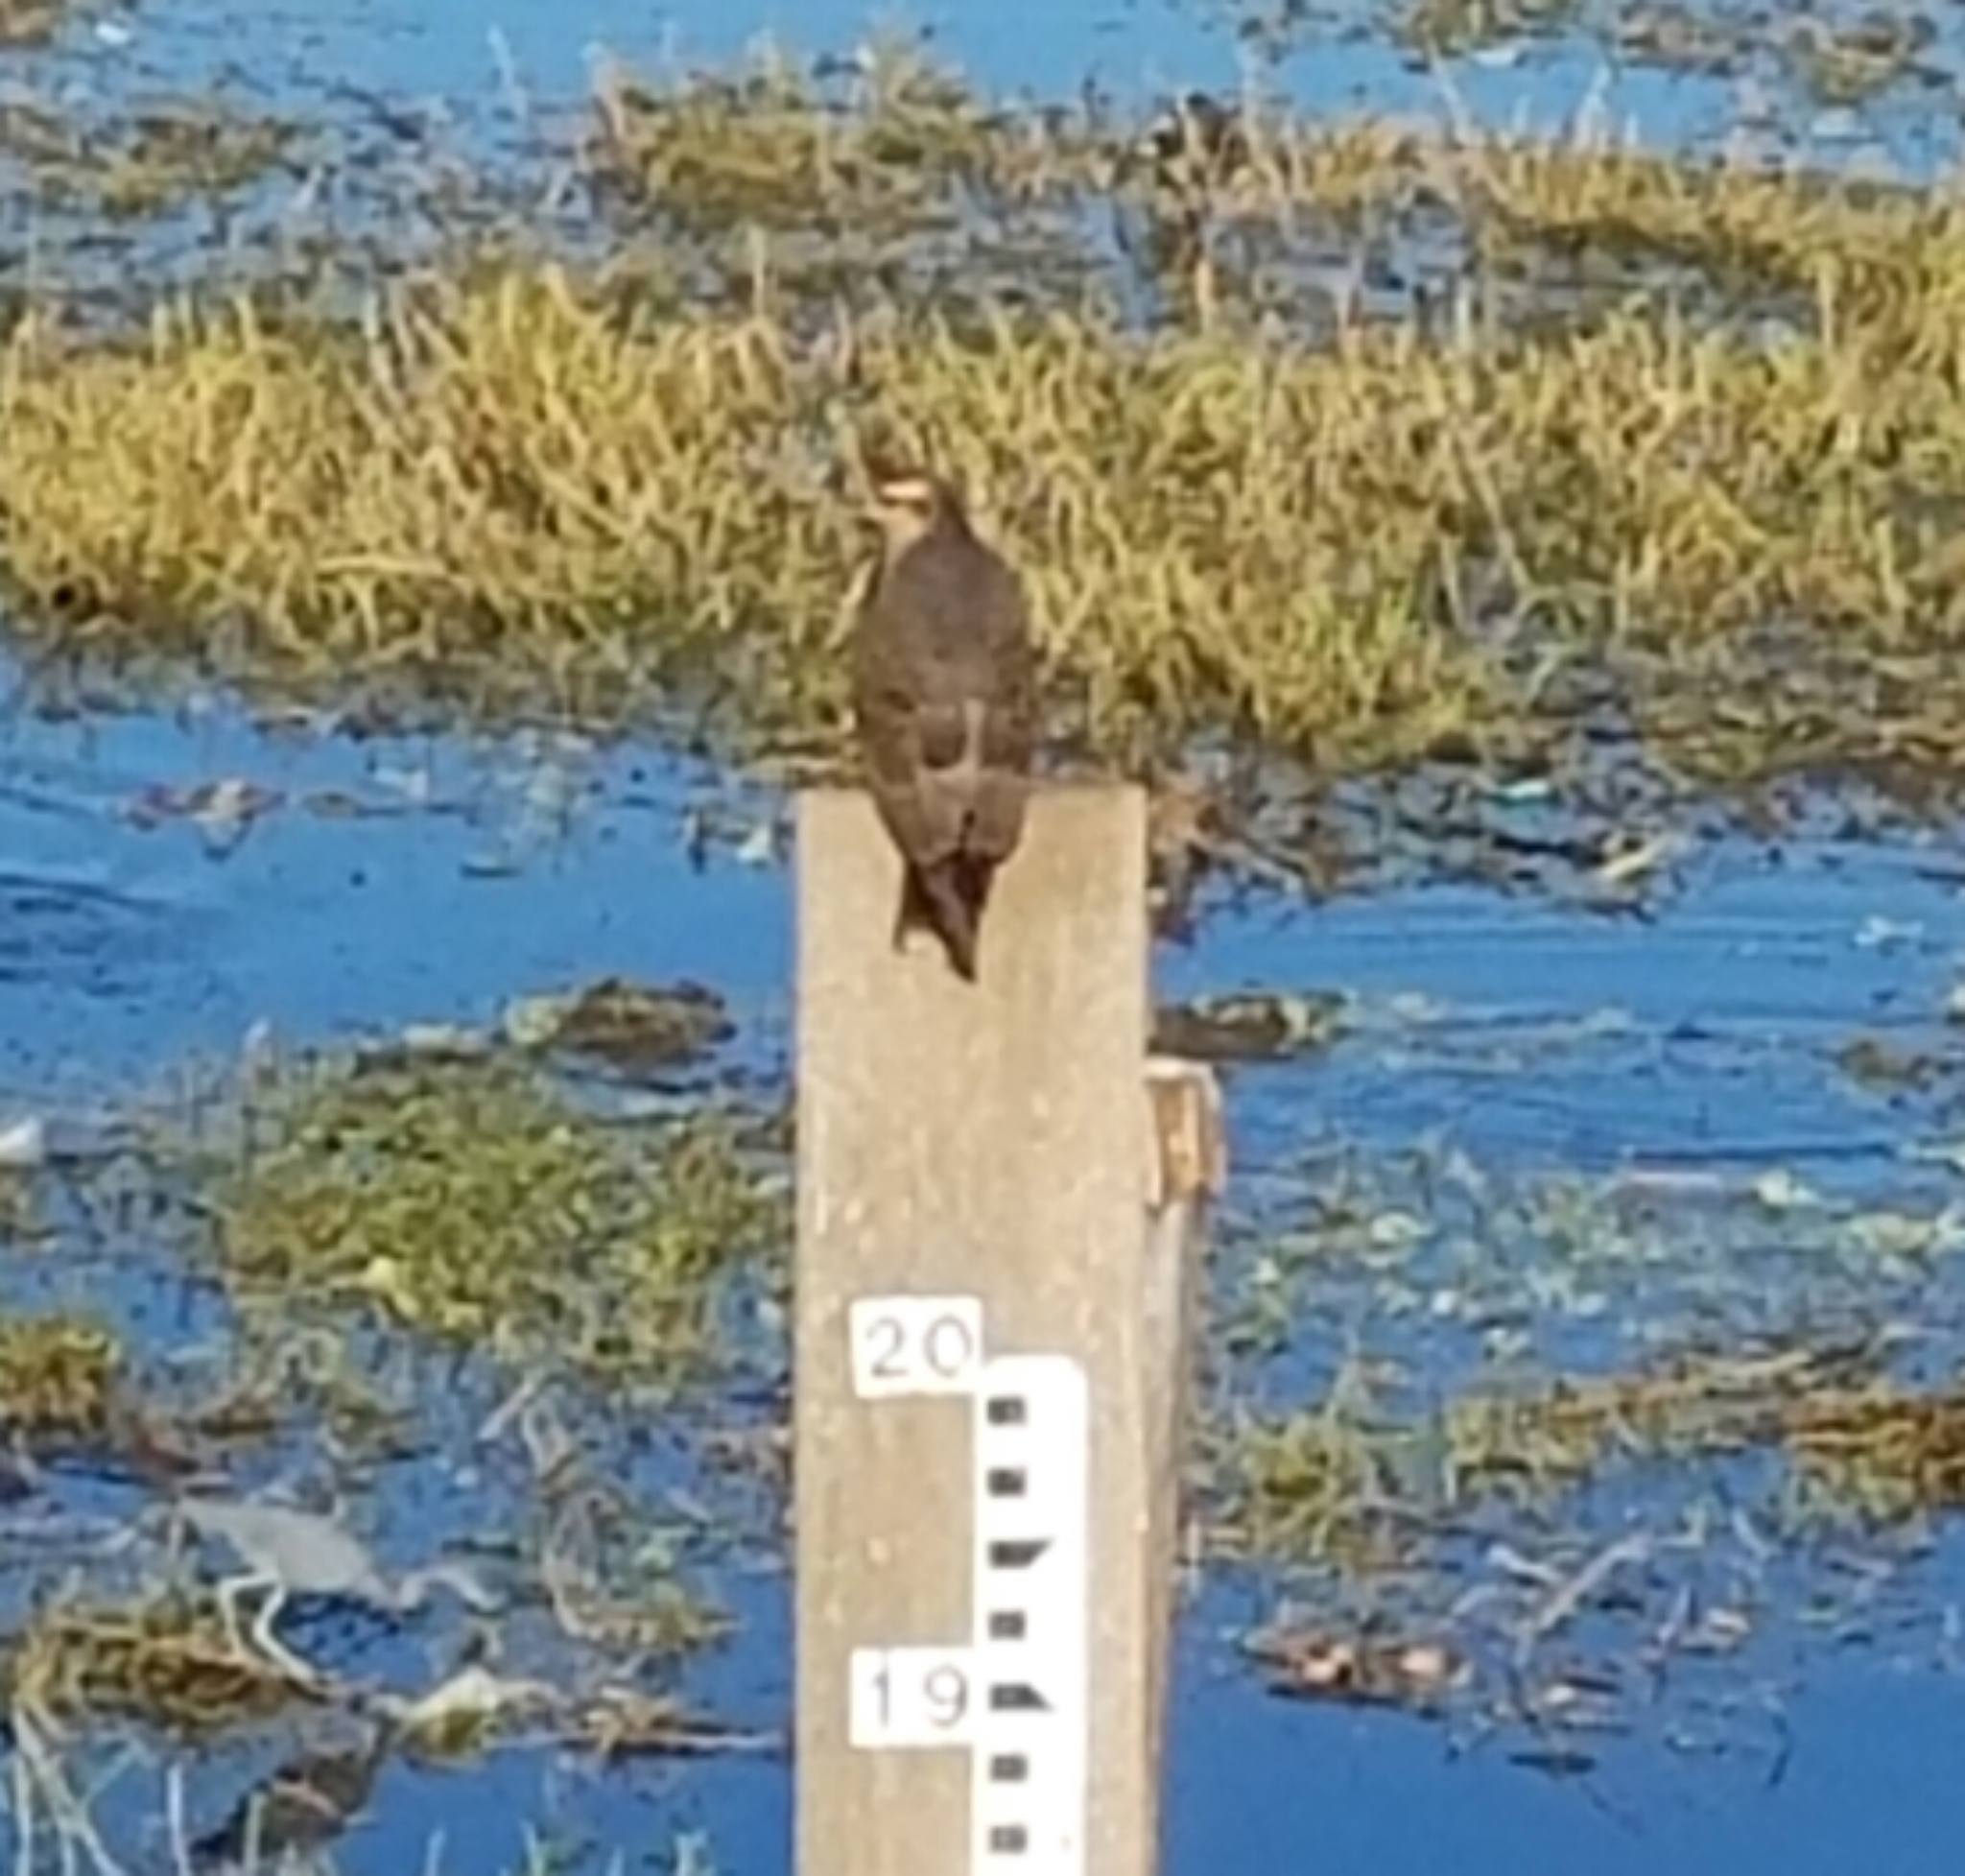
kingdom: Animalia
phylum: Chordata
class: Aves
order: Accipitriformes
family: Accipitridae
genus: Rostrhamus
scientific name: Rostrhamus sociabilis
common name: Snail kite
